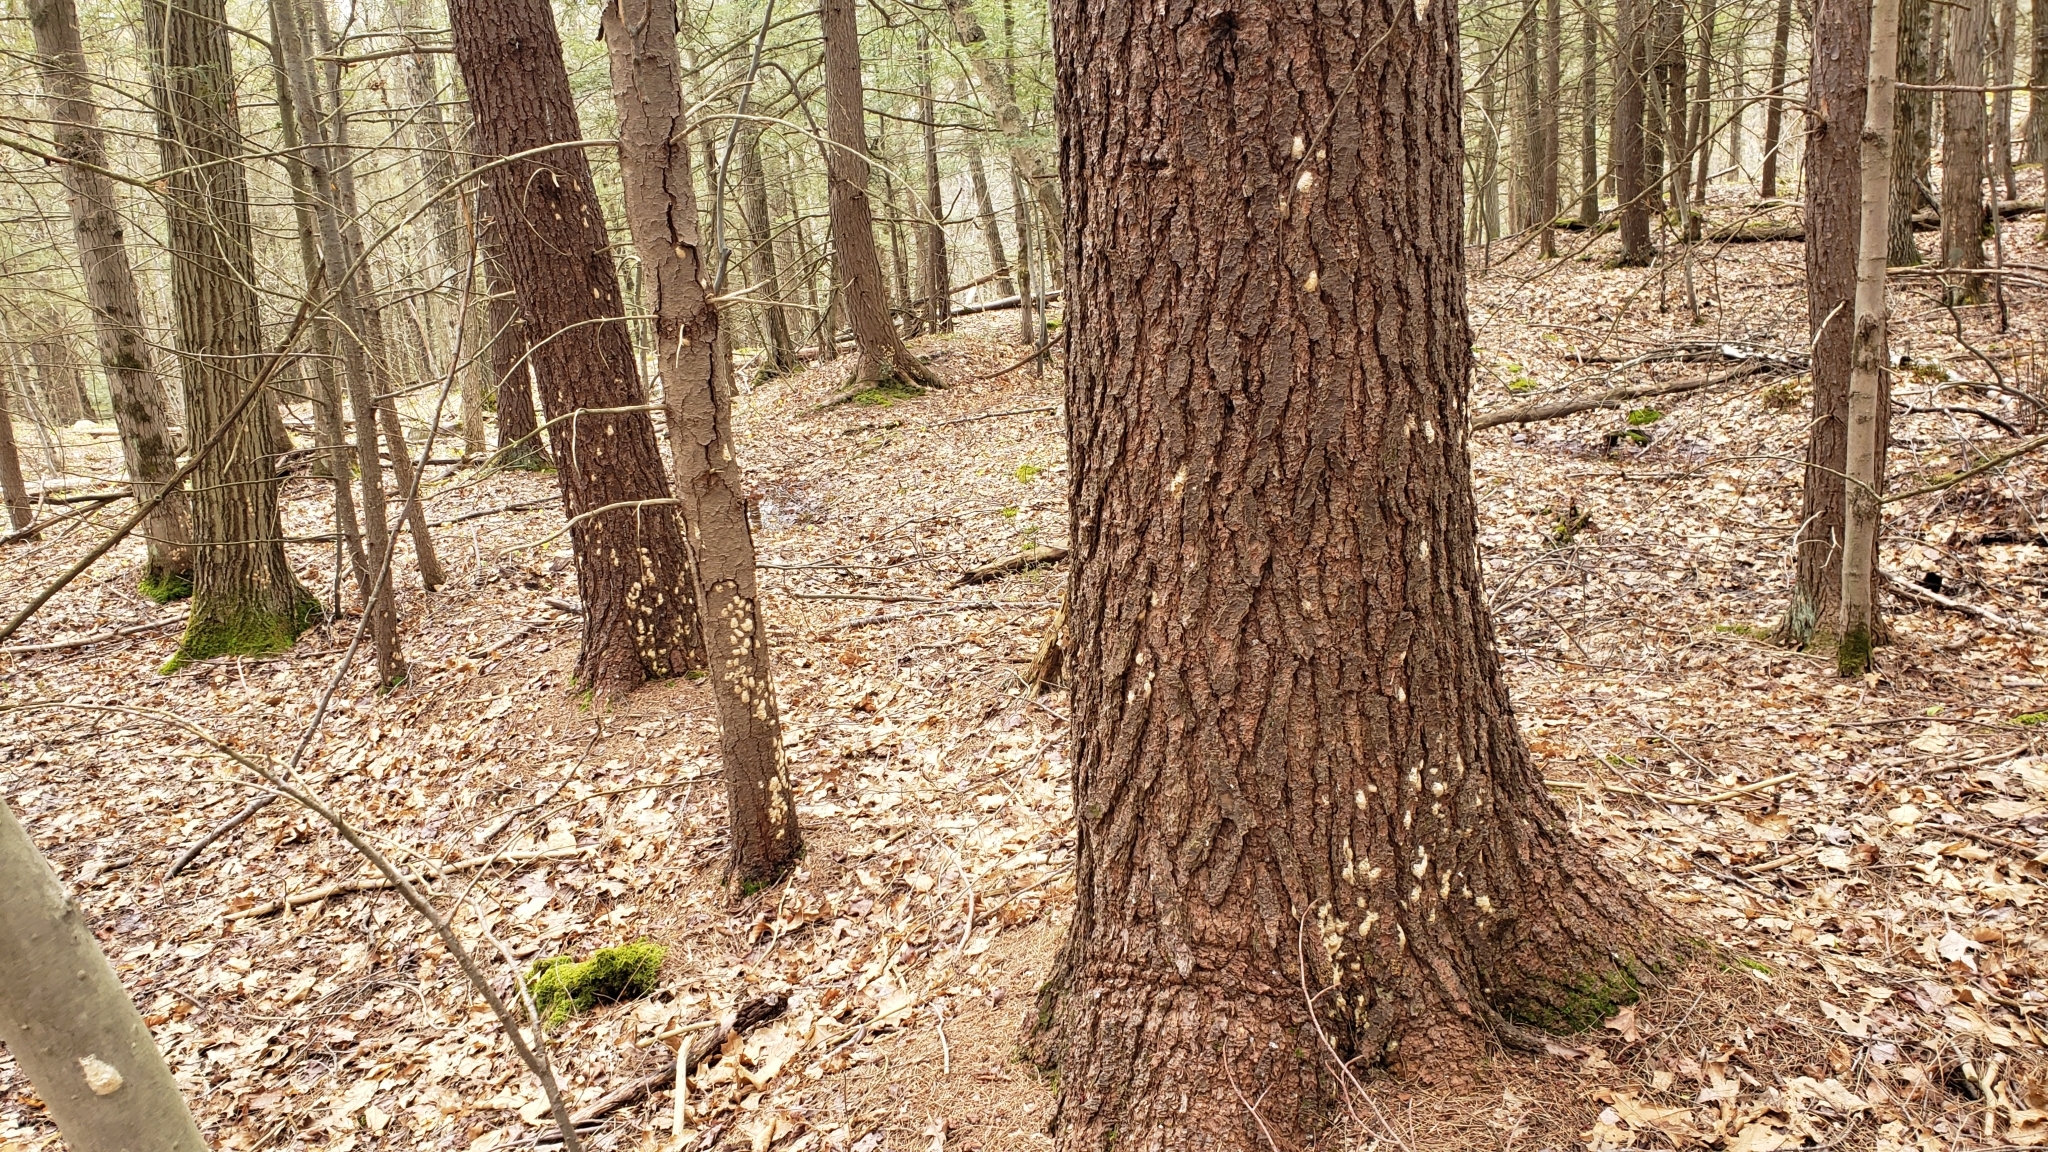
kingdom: Animalia
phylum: Arthropoda
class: Insecta
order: Lepidoptera
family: Erebidae
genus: Lymantria
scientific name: Lymantria dispar
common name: Gypsy moth
